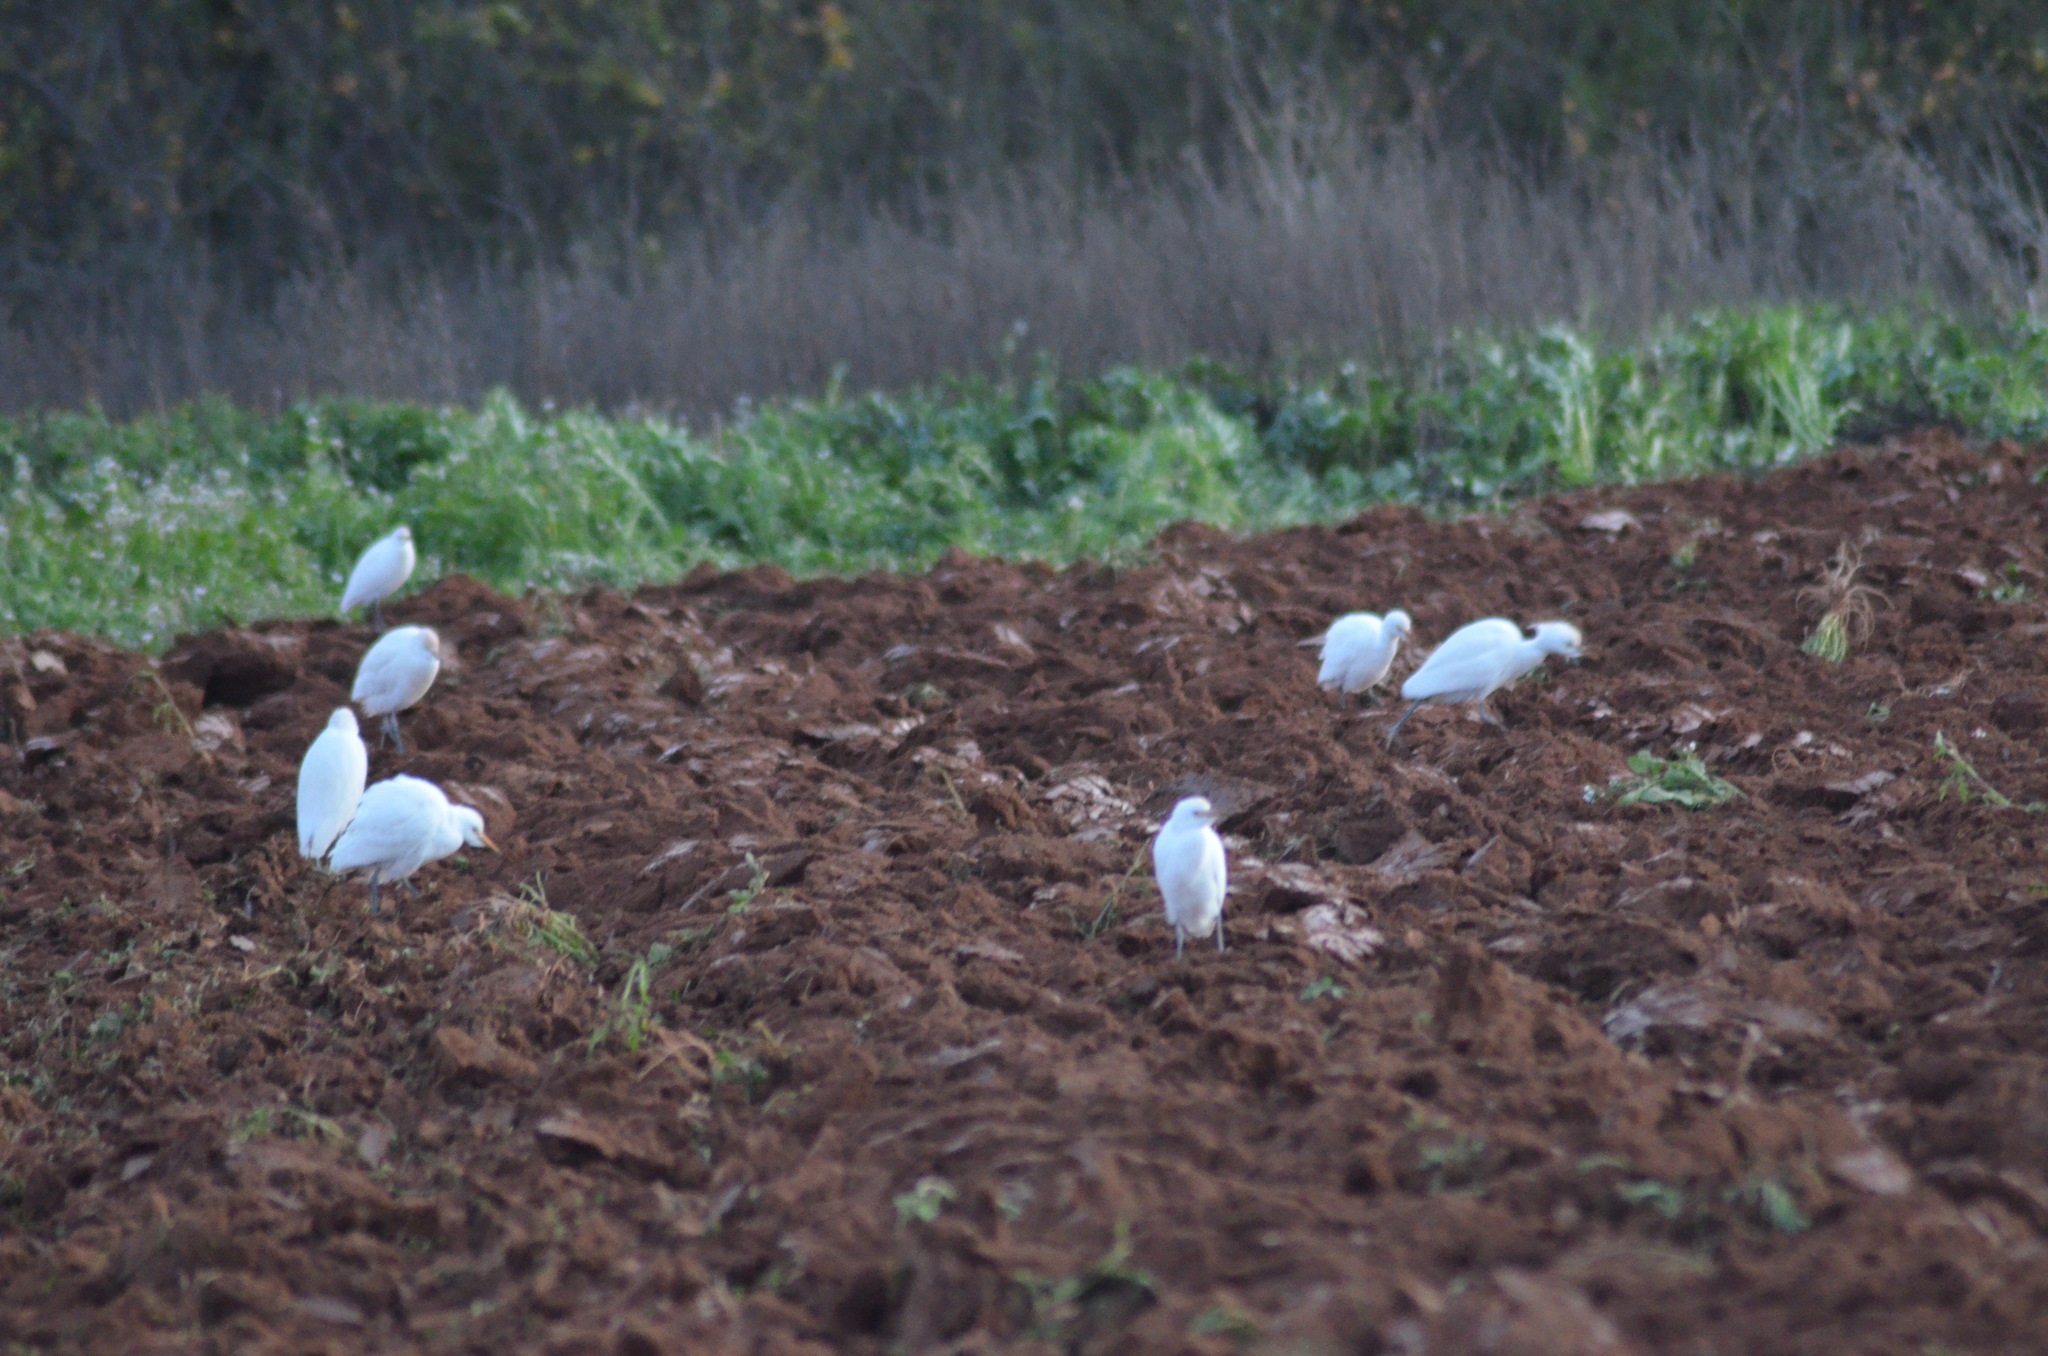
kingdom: Animalia
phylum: Chordata
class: Aves
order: Pelecaniformes
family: Ardeidae
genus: Bubulcus
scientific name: Bubulcus ibis
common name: Cattle egret
